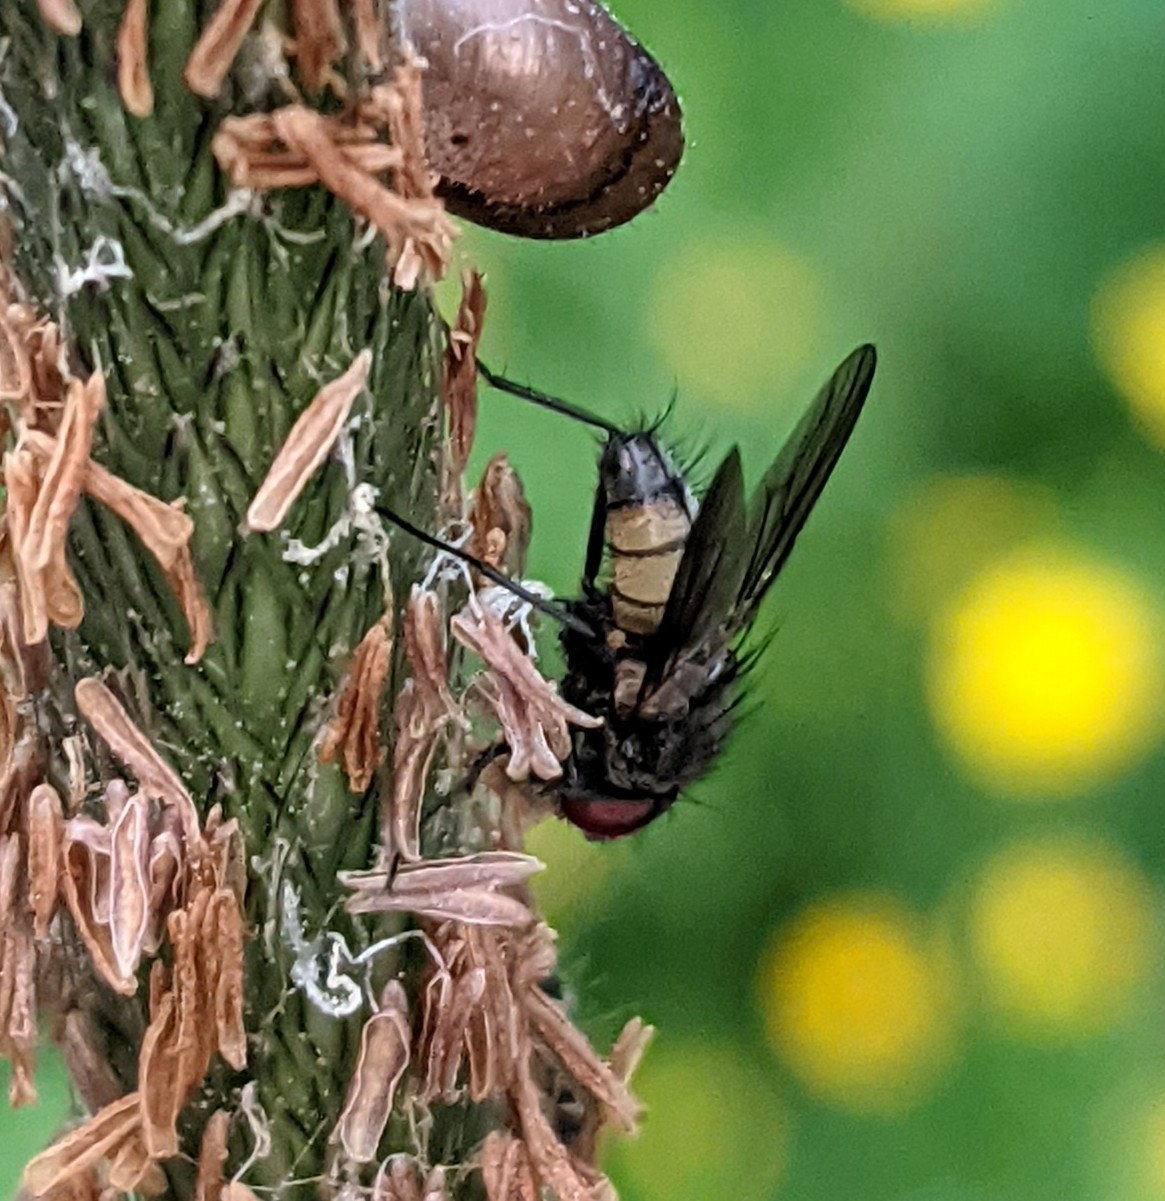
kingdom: Animalia
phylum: Arthropoda
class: Insecta
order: Diptera
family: Muscidae
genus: Thricops
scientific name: Thricops semicinereus
